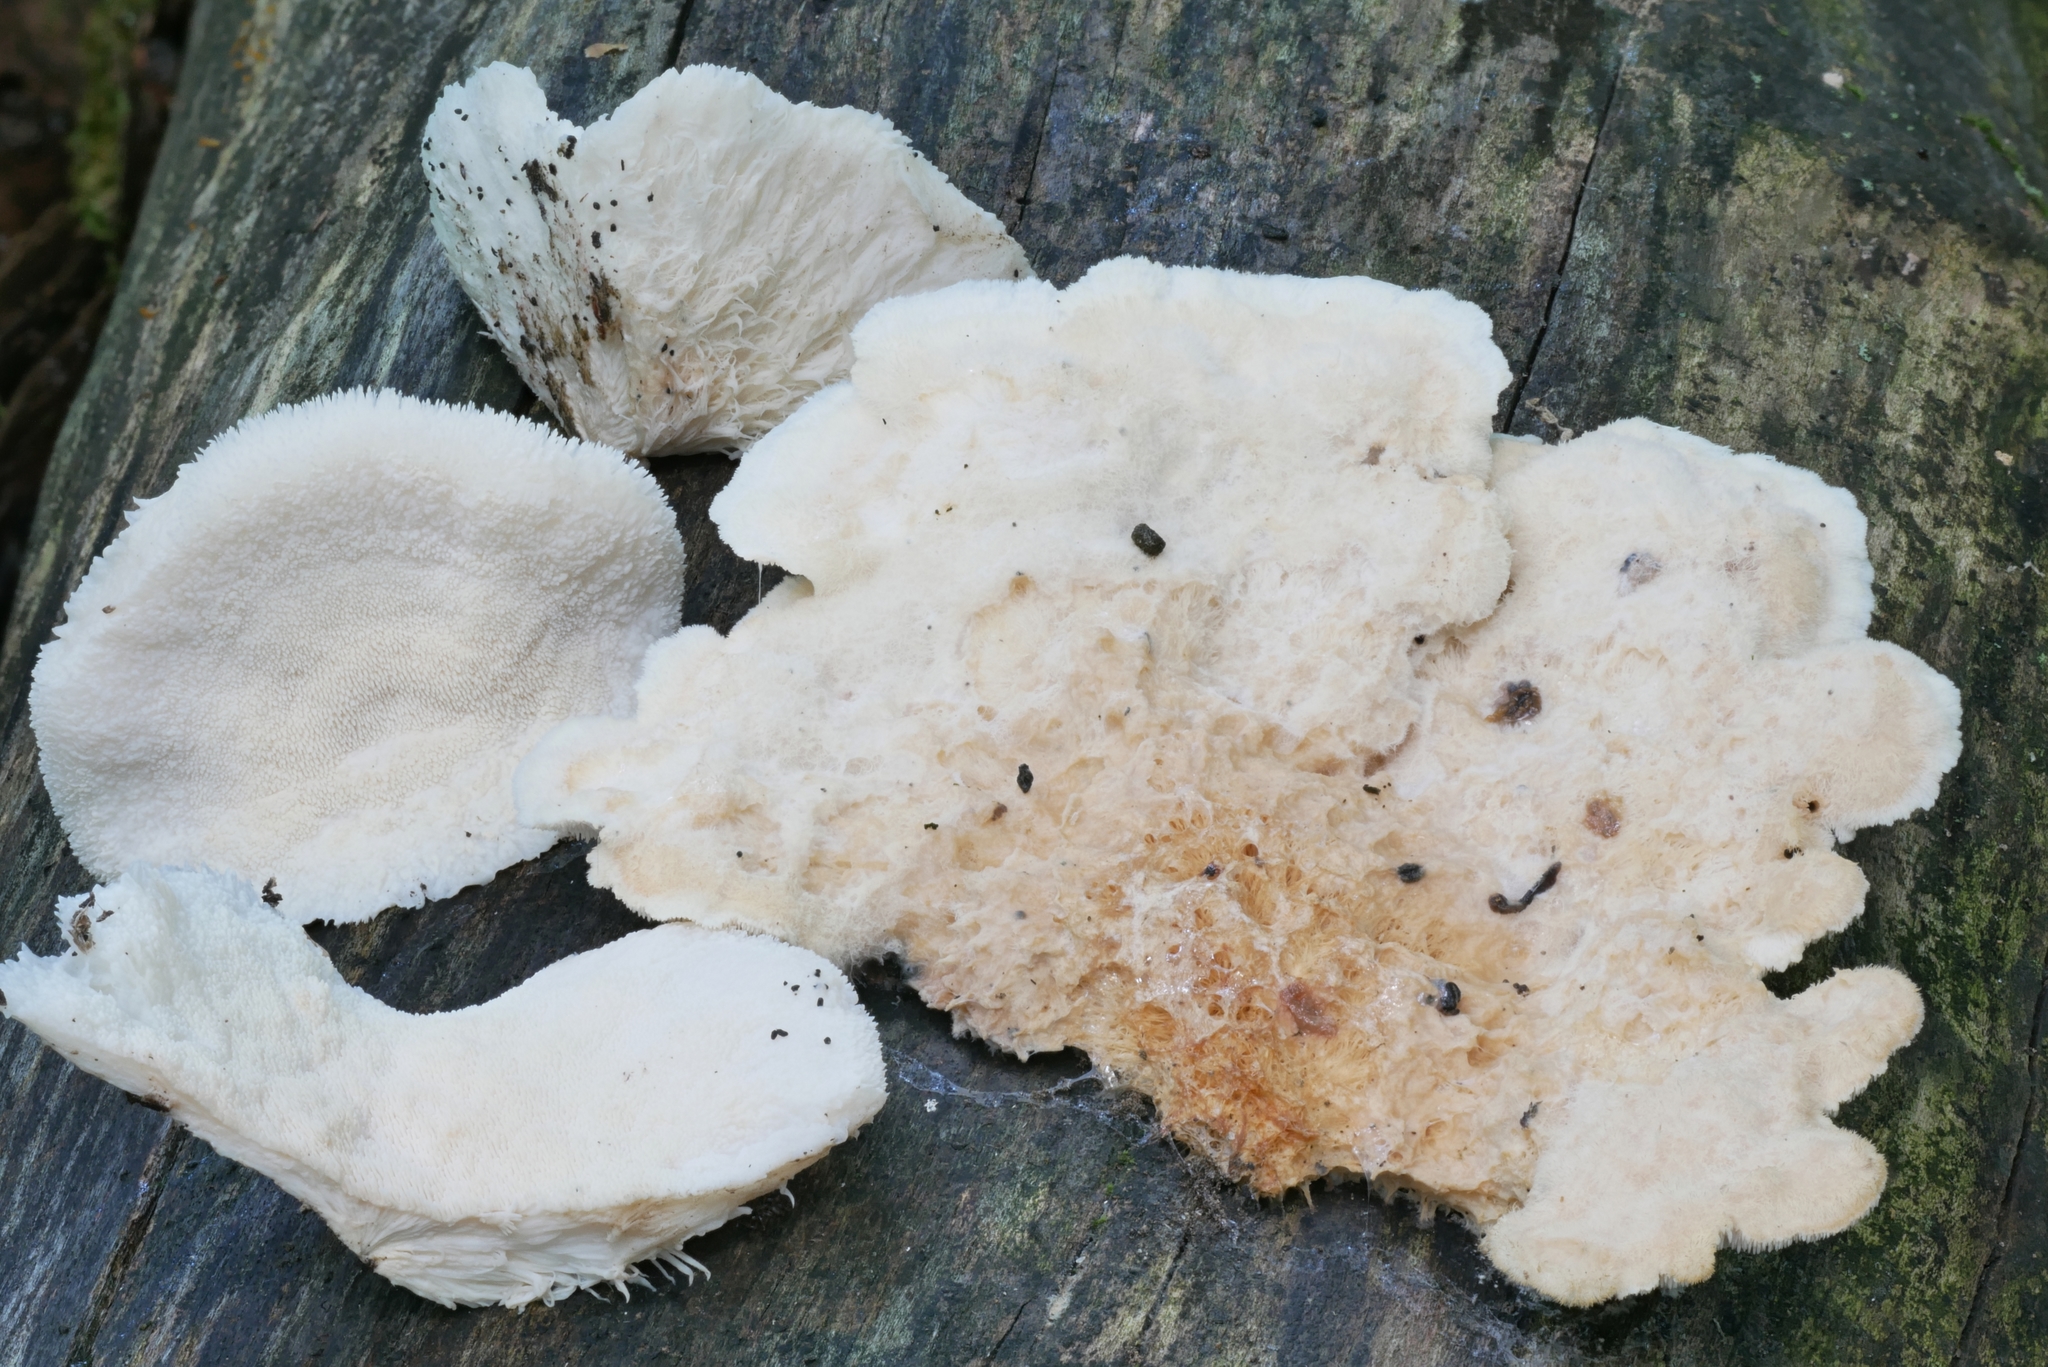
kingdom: Fungi
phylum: Basidiomycota
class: Agaricomycetes
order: Polyporales
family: Meruliaceae
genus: Donkia
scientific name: Donkia pulcherrima
